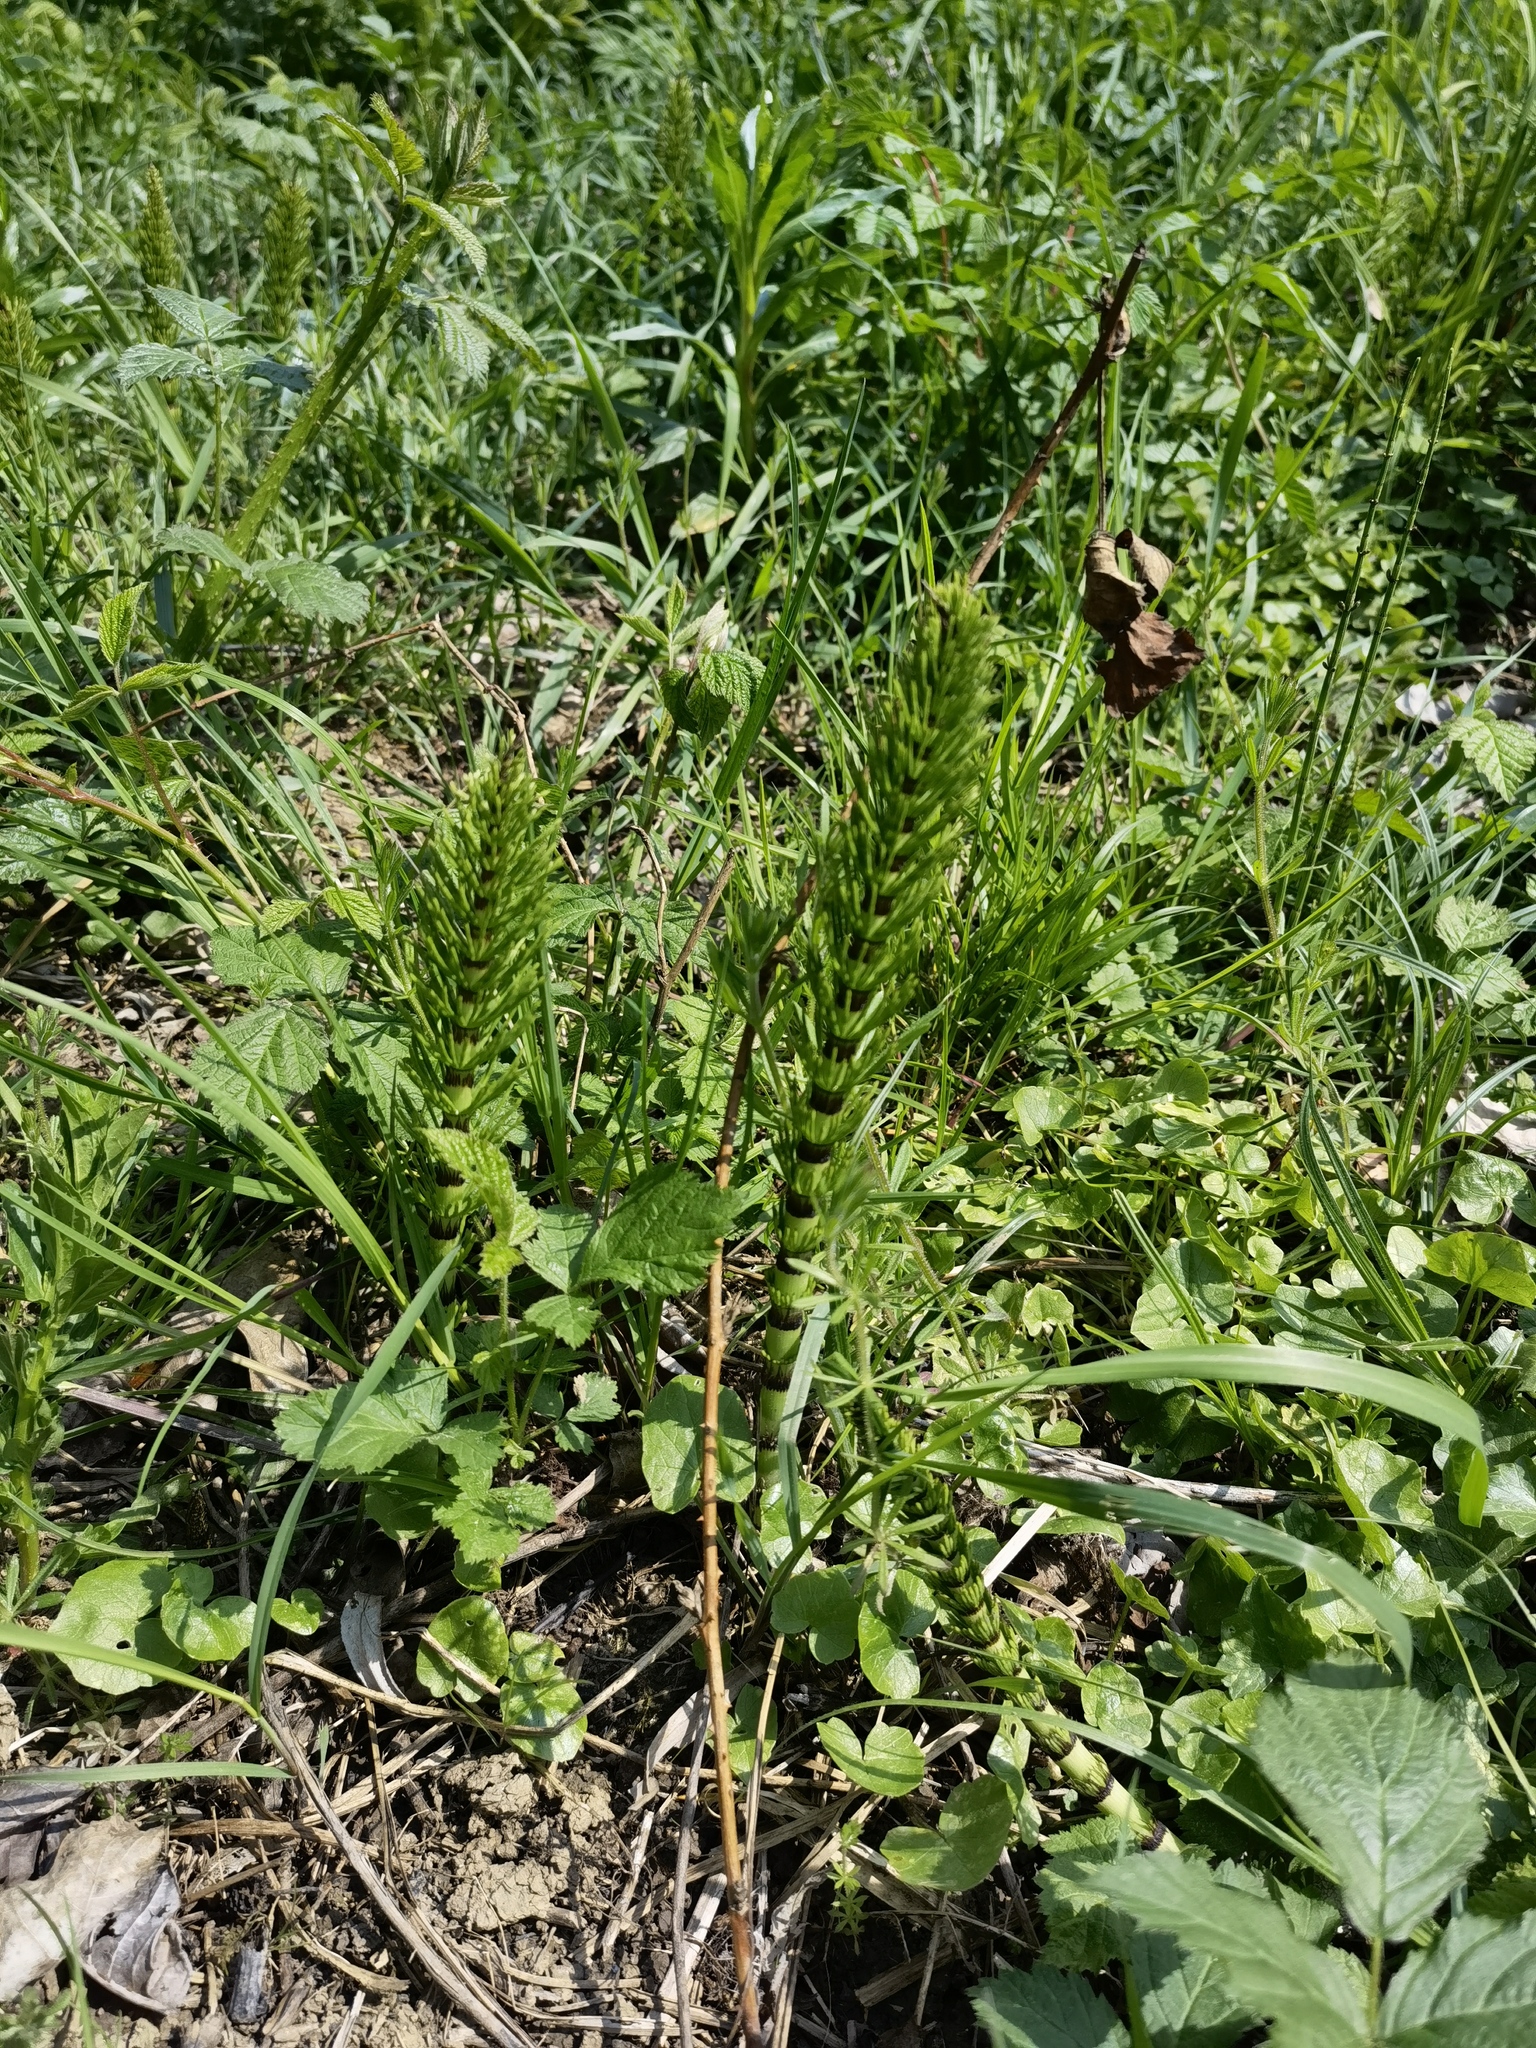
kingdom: Plantae
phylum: Tracheophyta
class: Polypodiopsida
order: Equisetales
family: Equisetaceae
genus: Equisetum
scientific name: Equisetum telmateia
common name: Great horsetail
